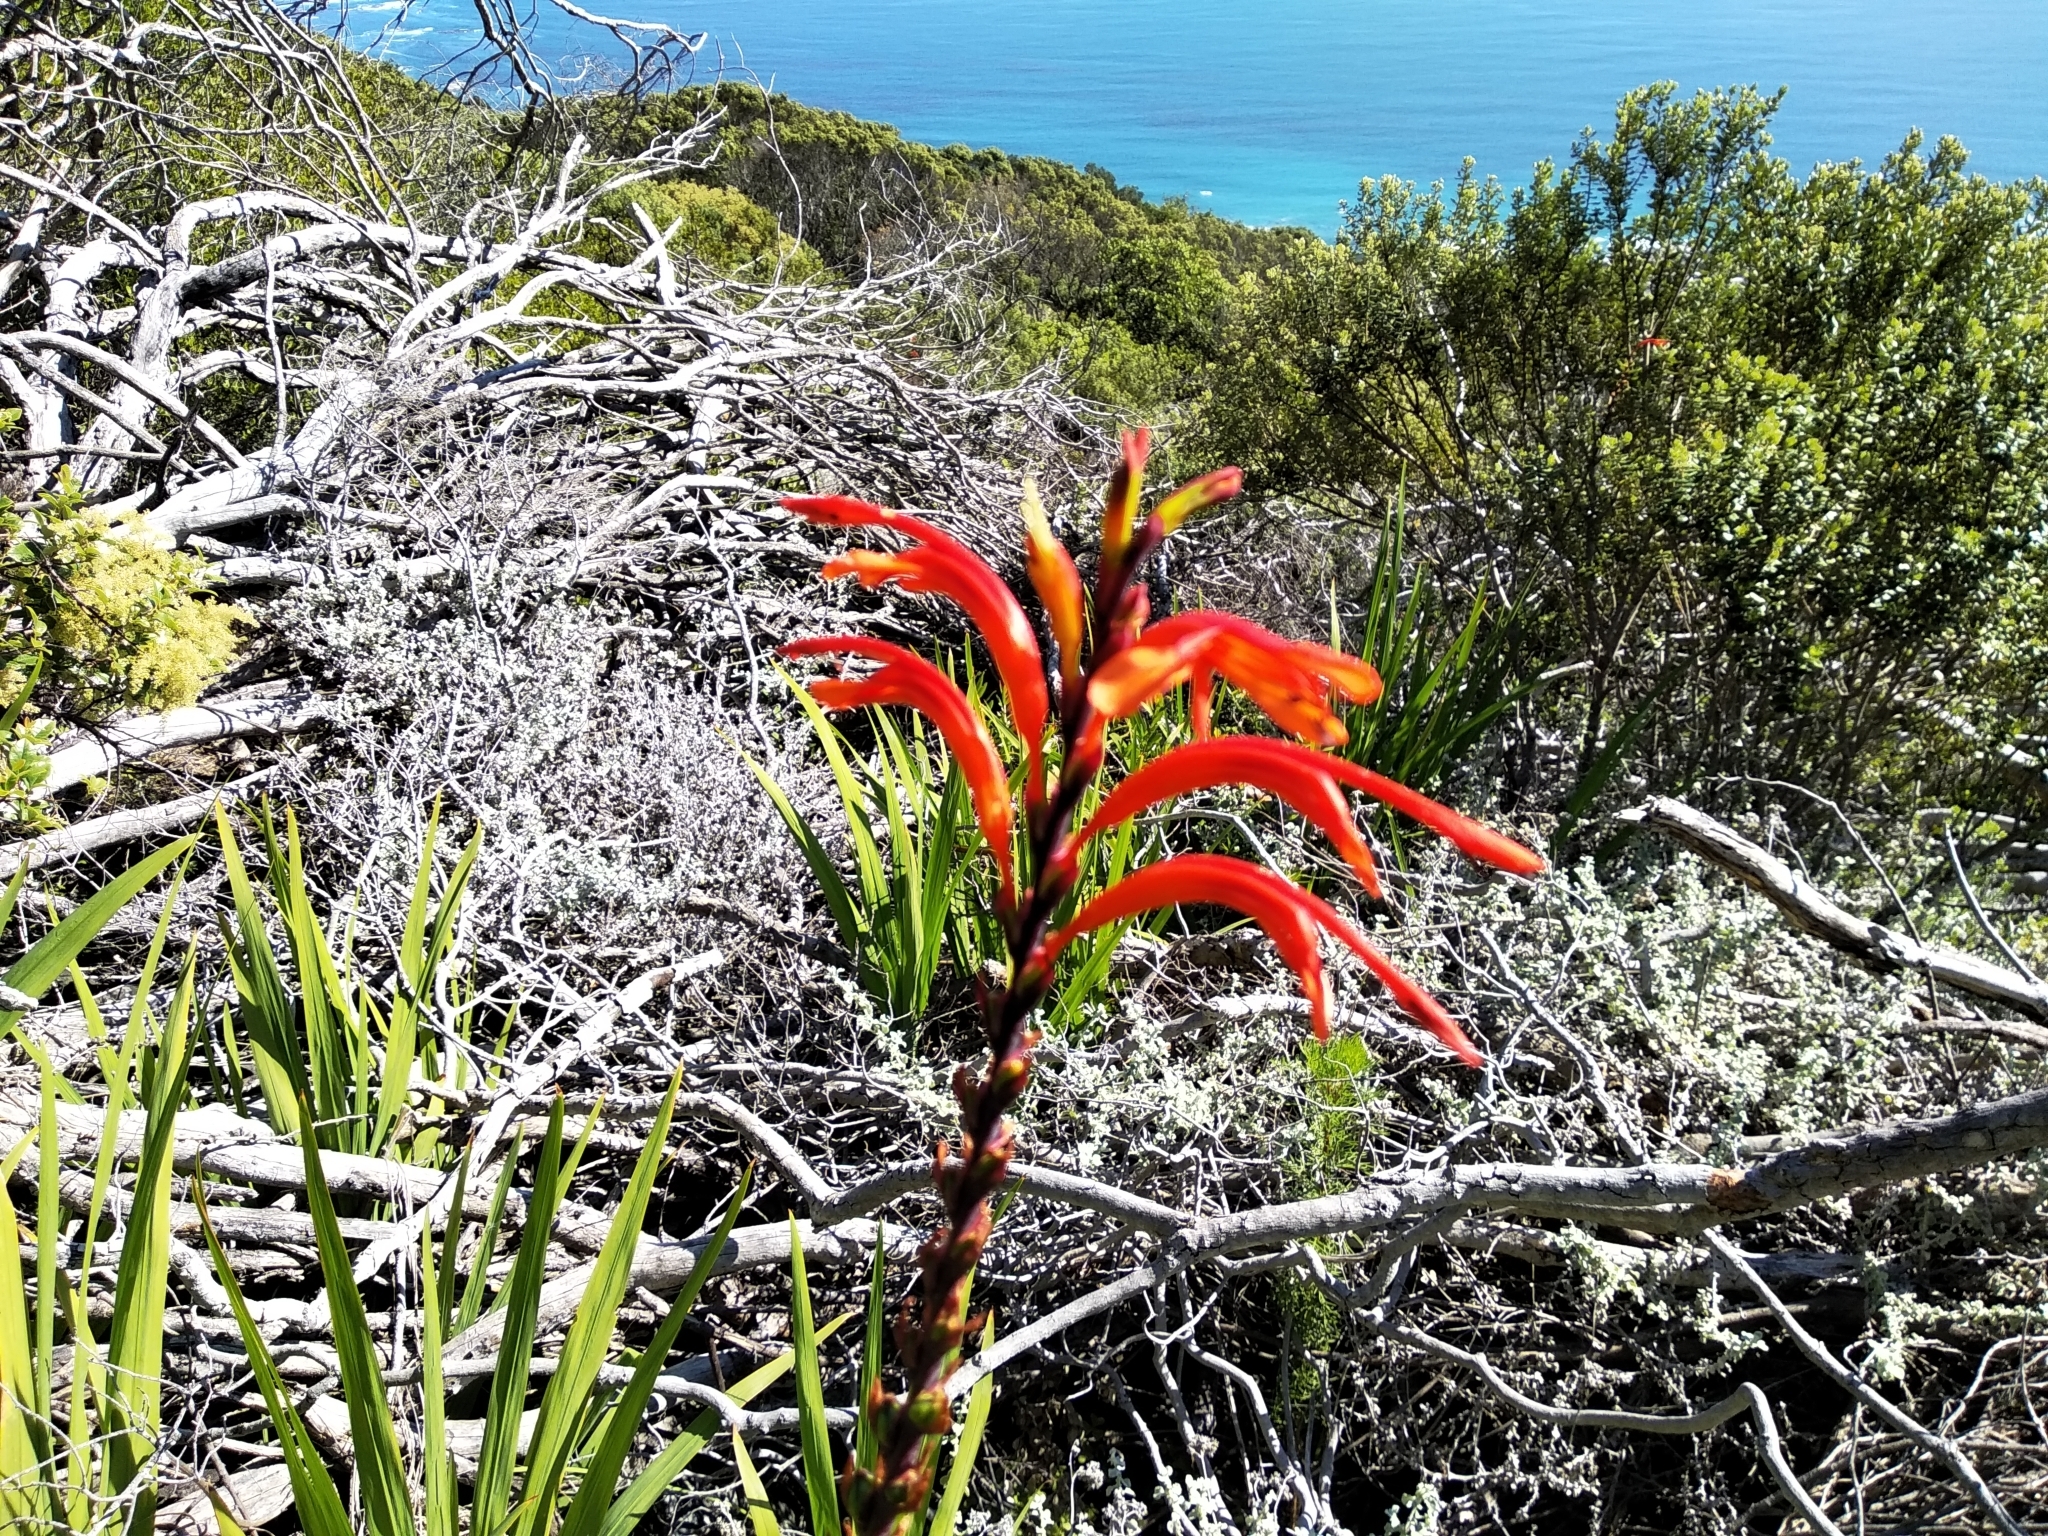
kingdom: Plantae
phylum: Tracheophyta
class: Liliopsida
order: Asparagales
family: Iridaceae
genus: Chasmanthe
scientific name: Chasmanthe floribunda
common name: African cornflag
